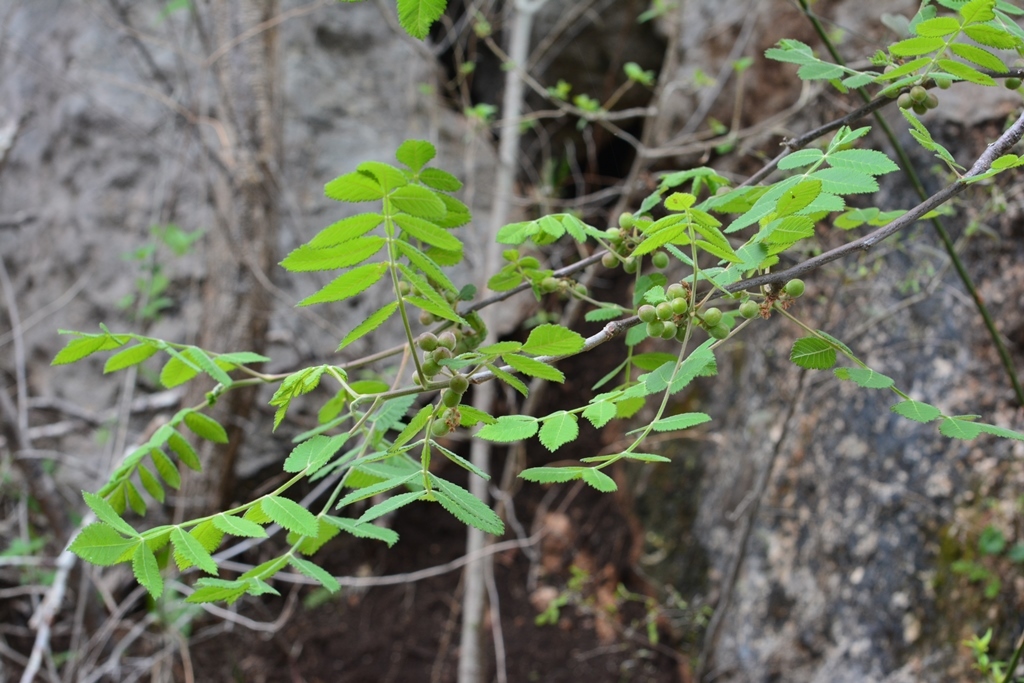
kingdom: Plantae
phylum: Tracheophyta
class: Magnoliopsida
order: Sapindales
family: Burseraceae
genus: Bursera
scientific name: Bursera excelsa
